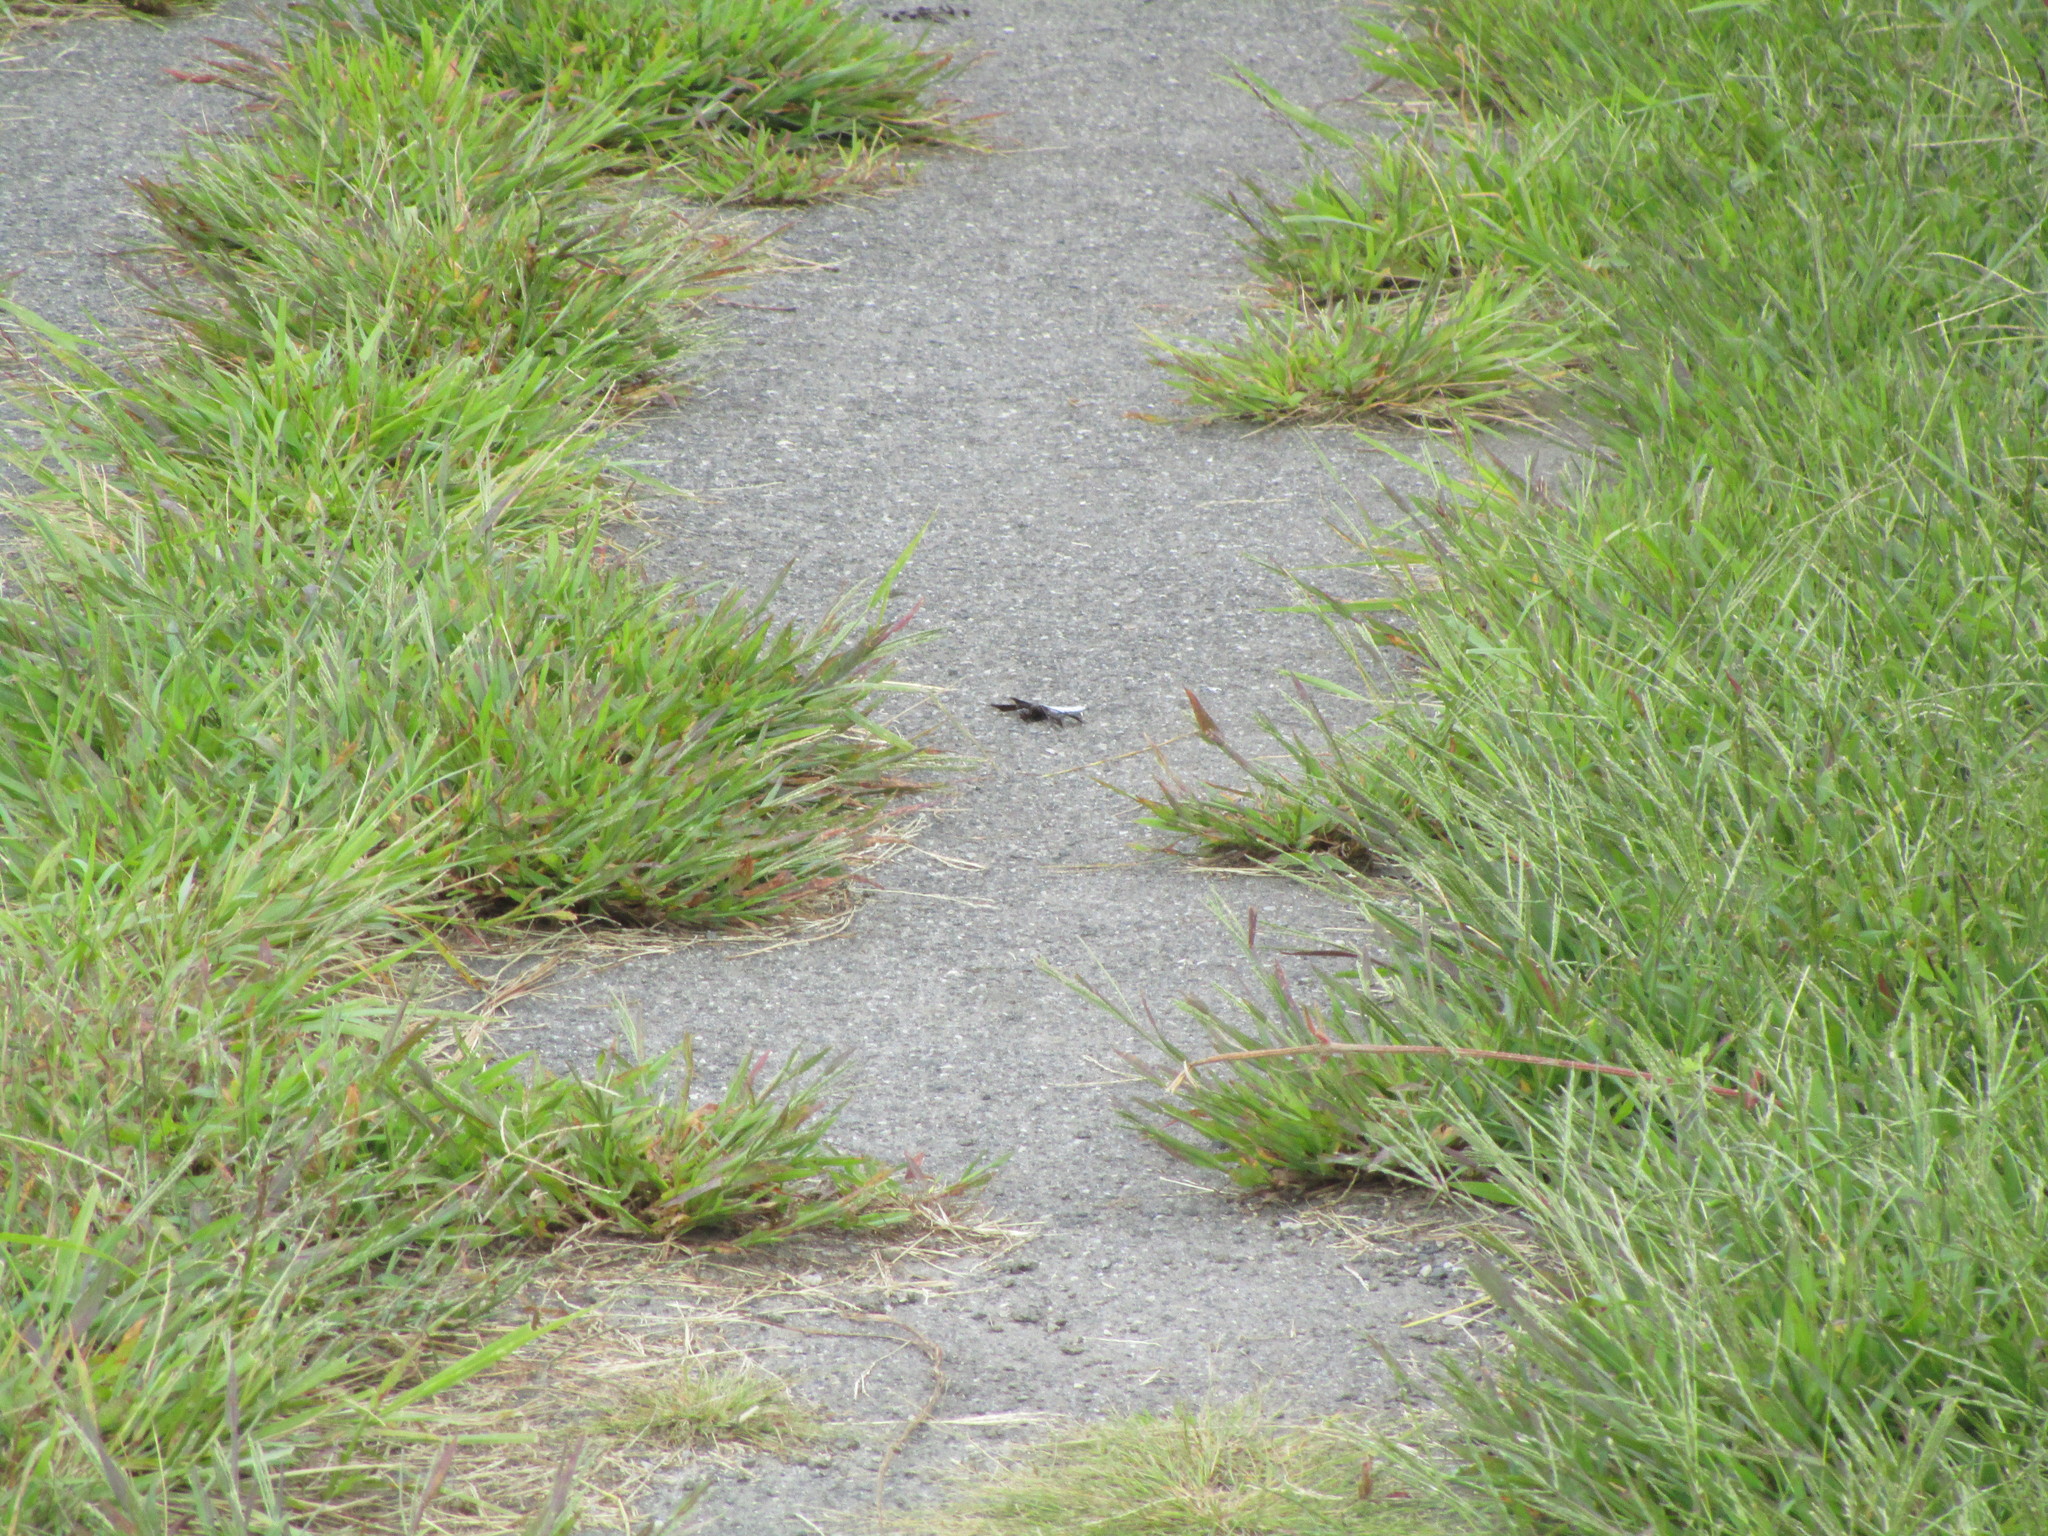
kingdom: Animalia
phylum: Arthropoda
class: Insecta
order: Odonata
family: Libellulidae
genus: Plathemis
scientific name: Plathemis lydia
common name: Common whitetail
